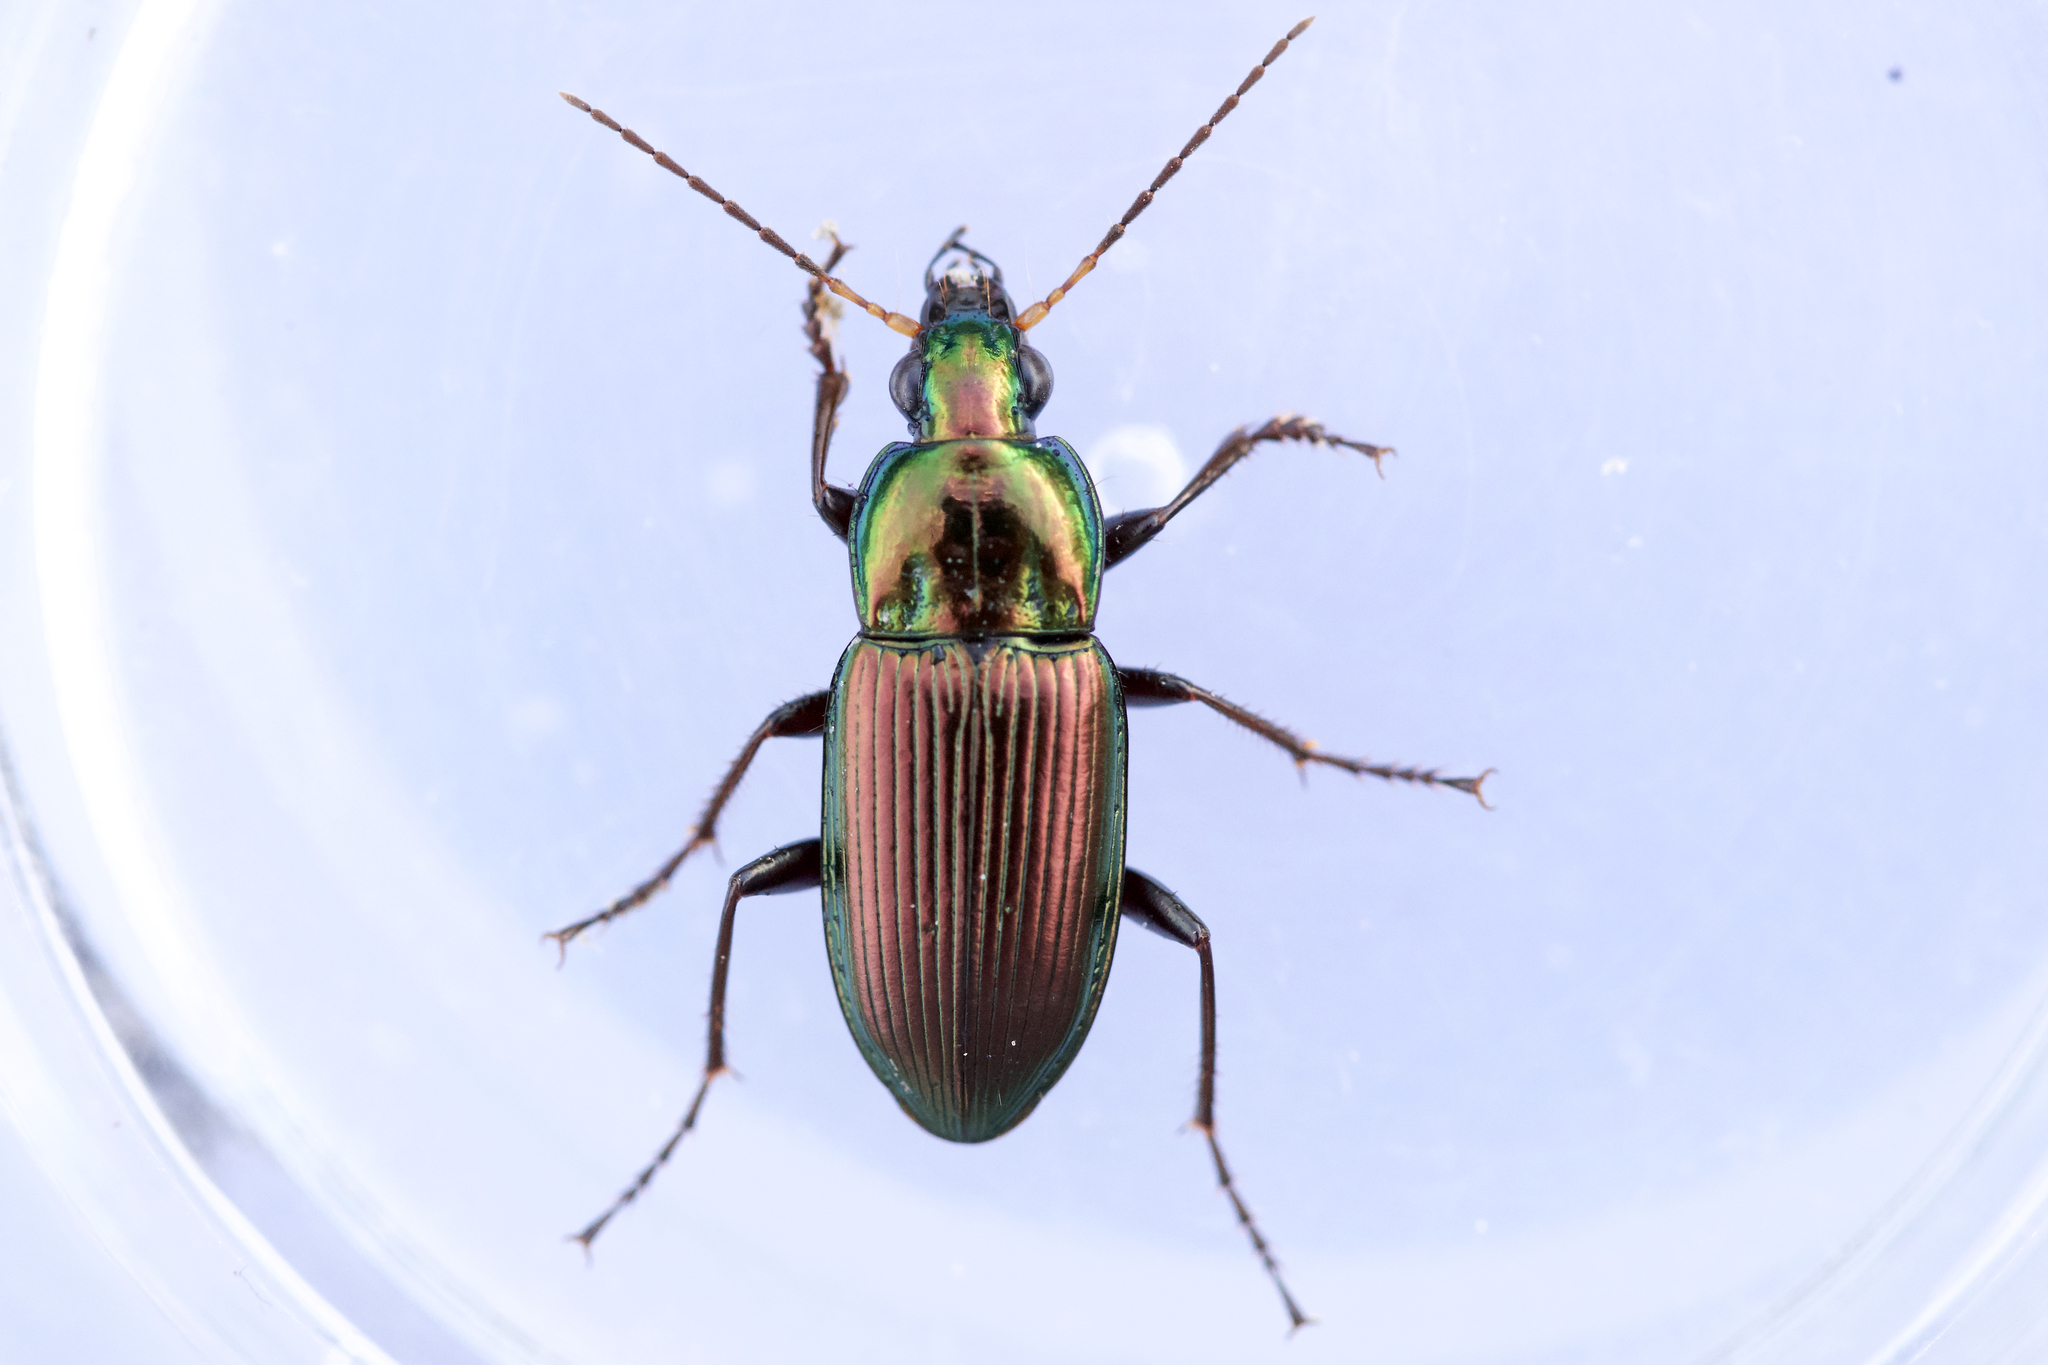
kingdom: Animalia
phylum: Arthropoda
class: Insecta
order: Coleoptera
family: Carabidae
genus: Poecilus
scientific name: Poecilus chalcites
